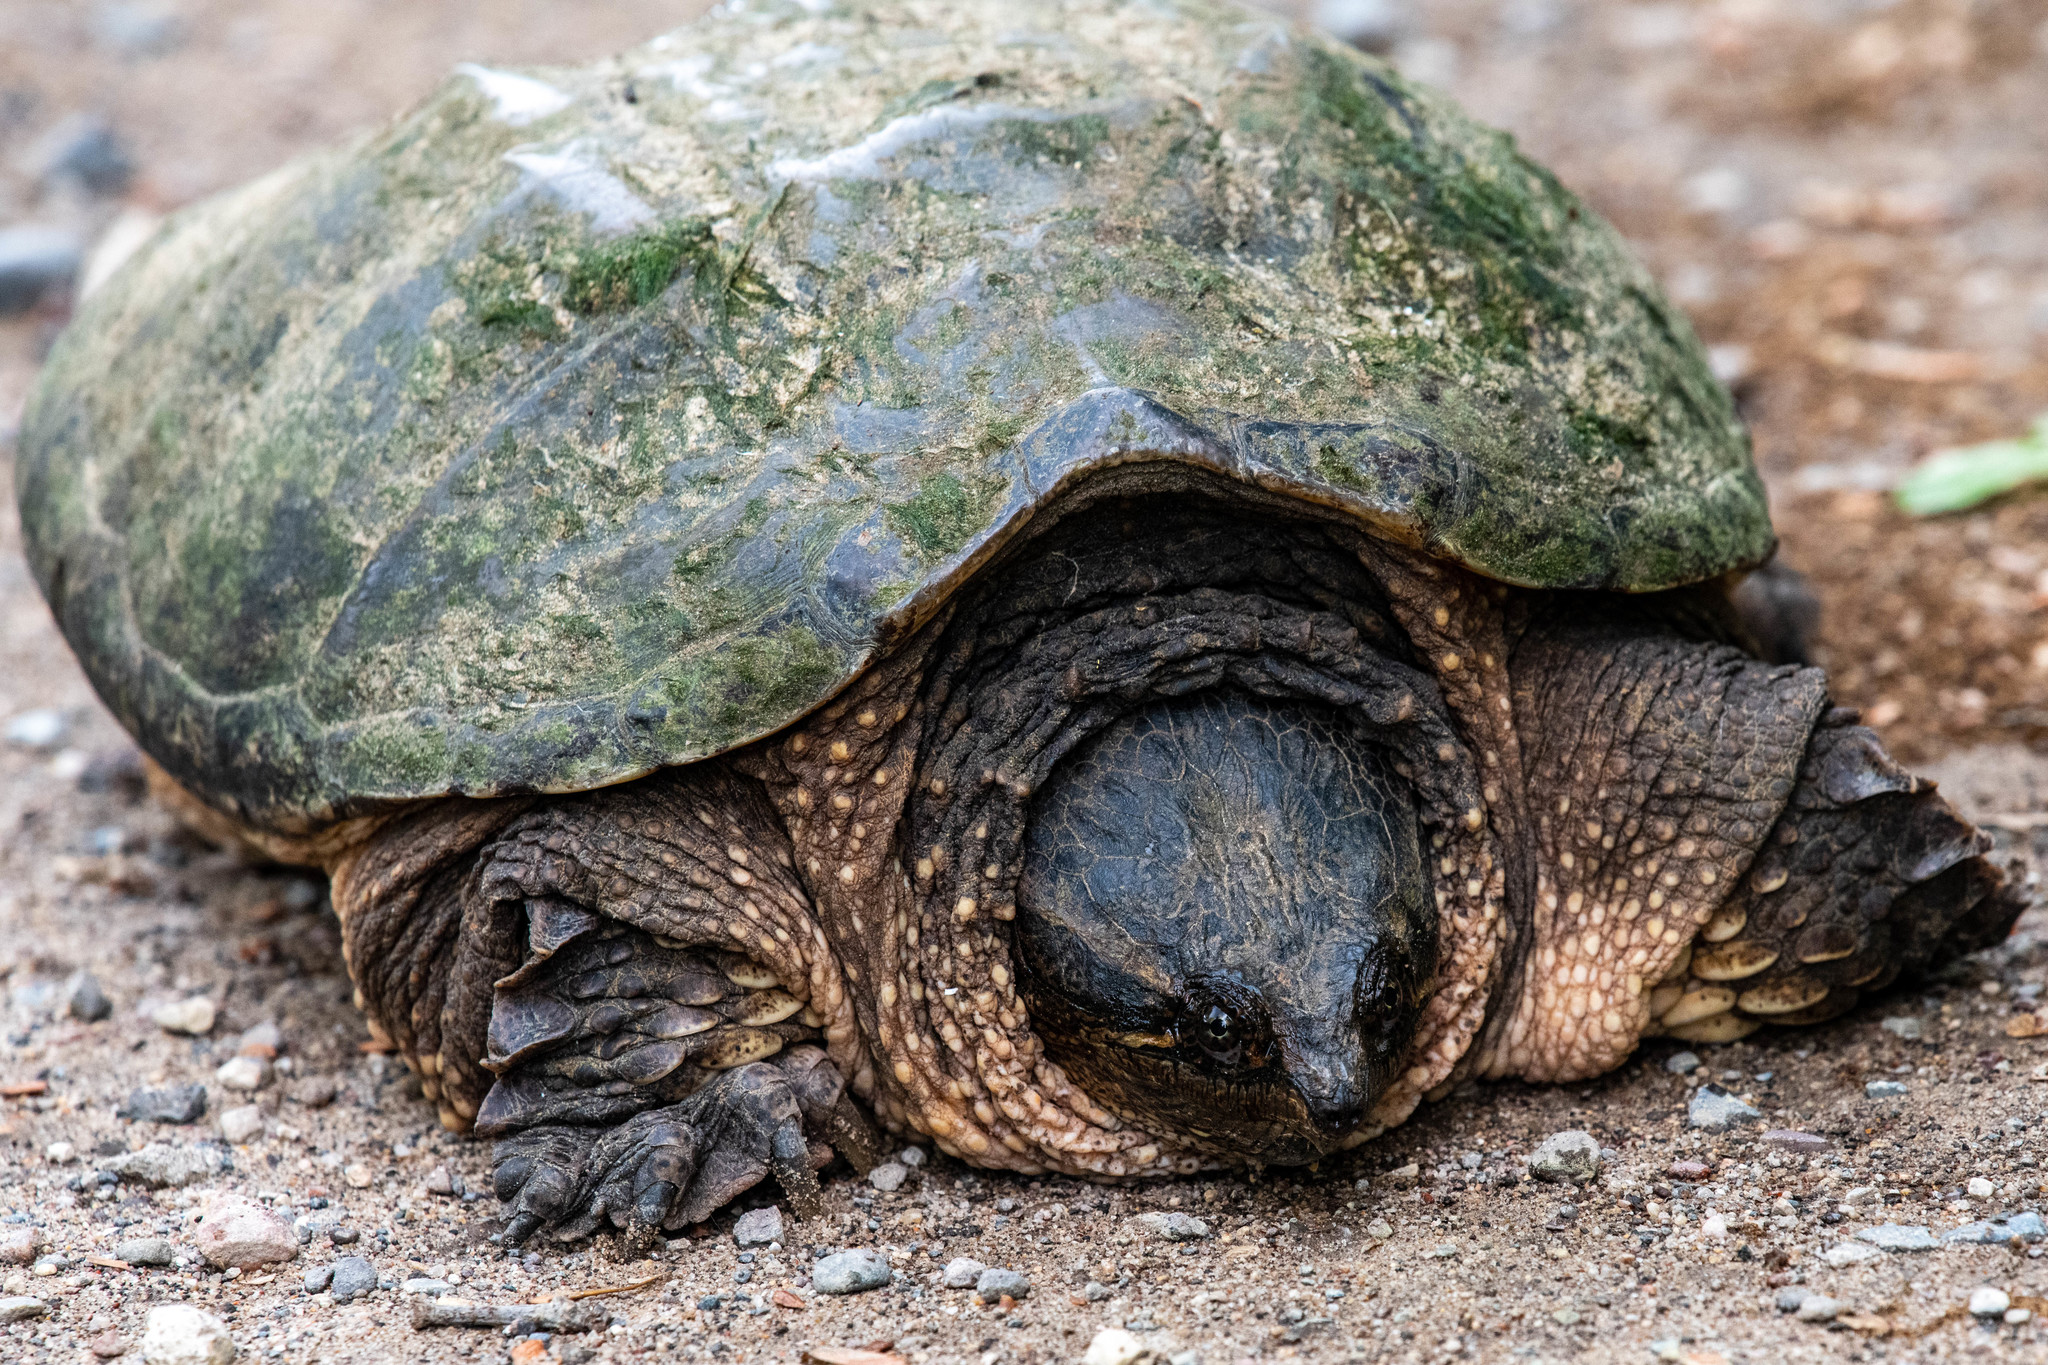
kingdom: Animalia
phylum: Chordata
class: Testudines
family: Chelydridae
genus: Chelydra
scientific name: Chelydra serpentina
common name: Common snapping turtle
